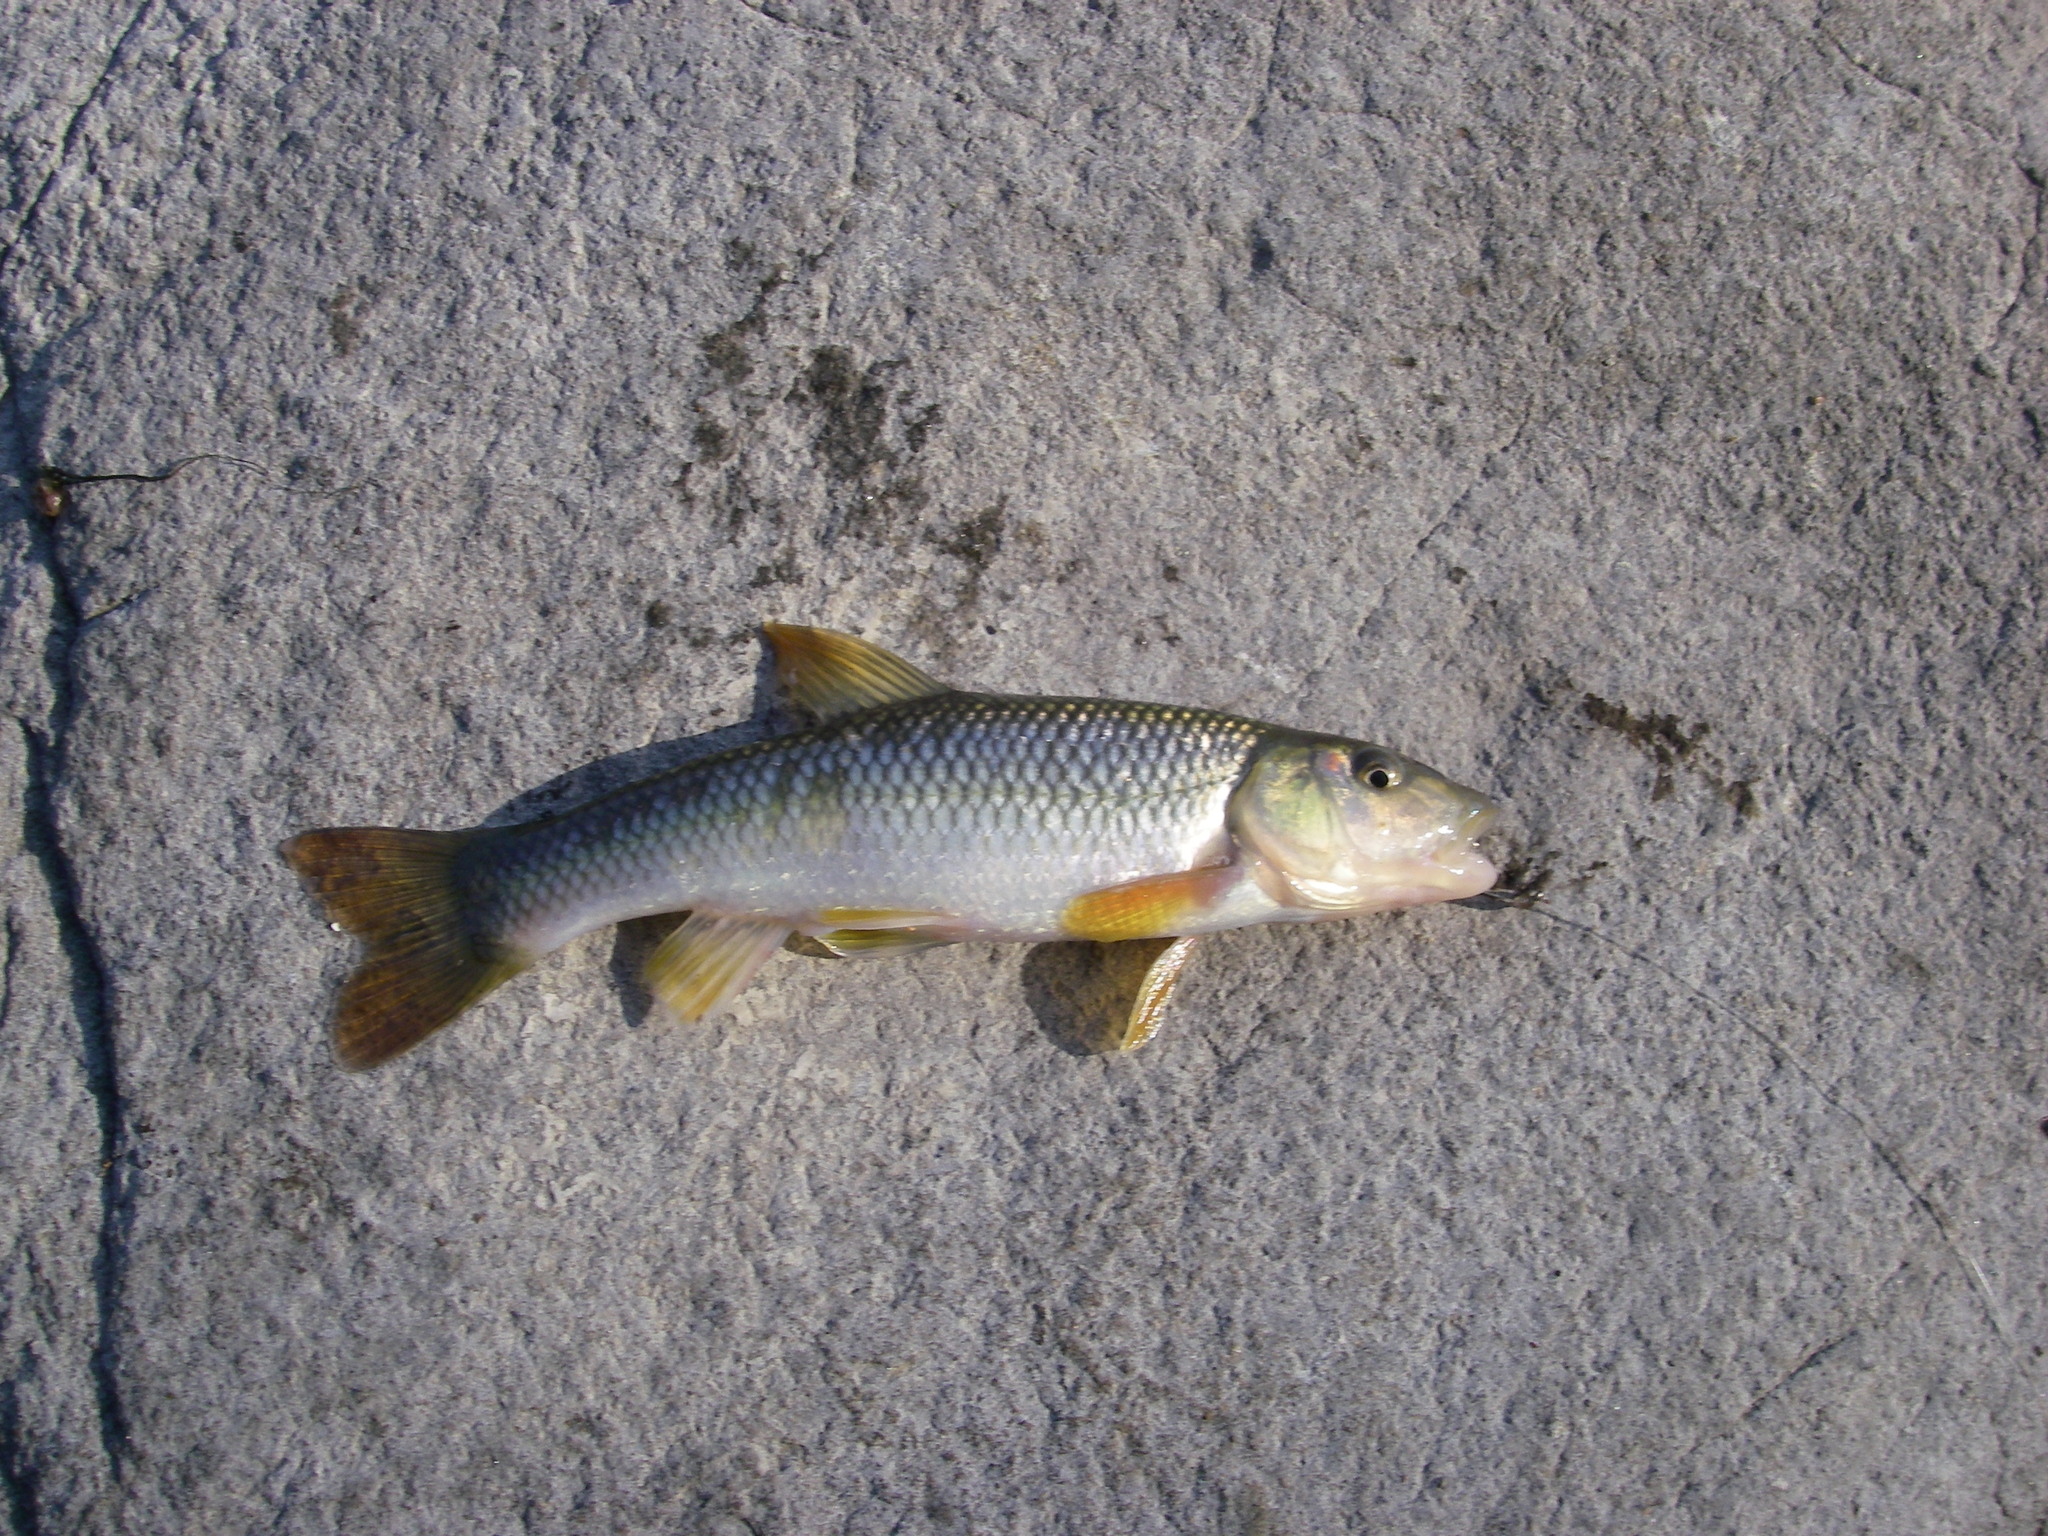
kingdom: Animalia
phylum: Chordata
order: Cypriniformes
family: Cyprinidae
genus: Nocomis
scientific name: Nocomis biguttatus
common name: Hornyhead chub
